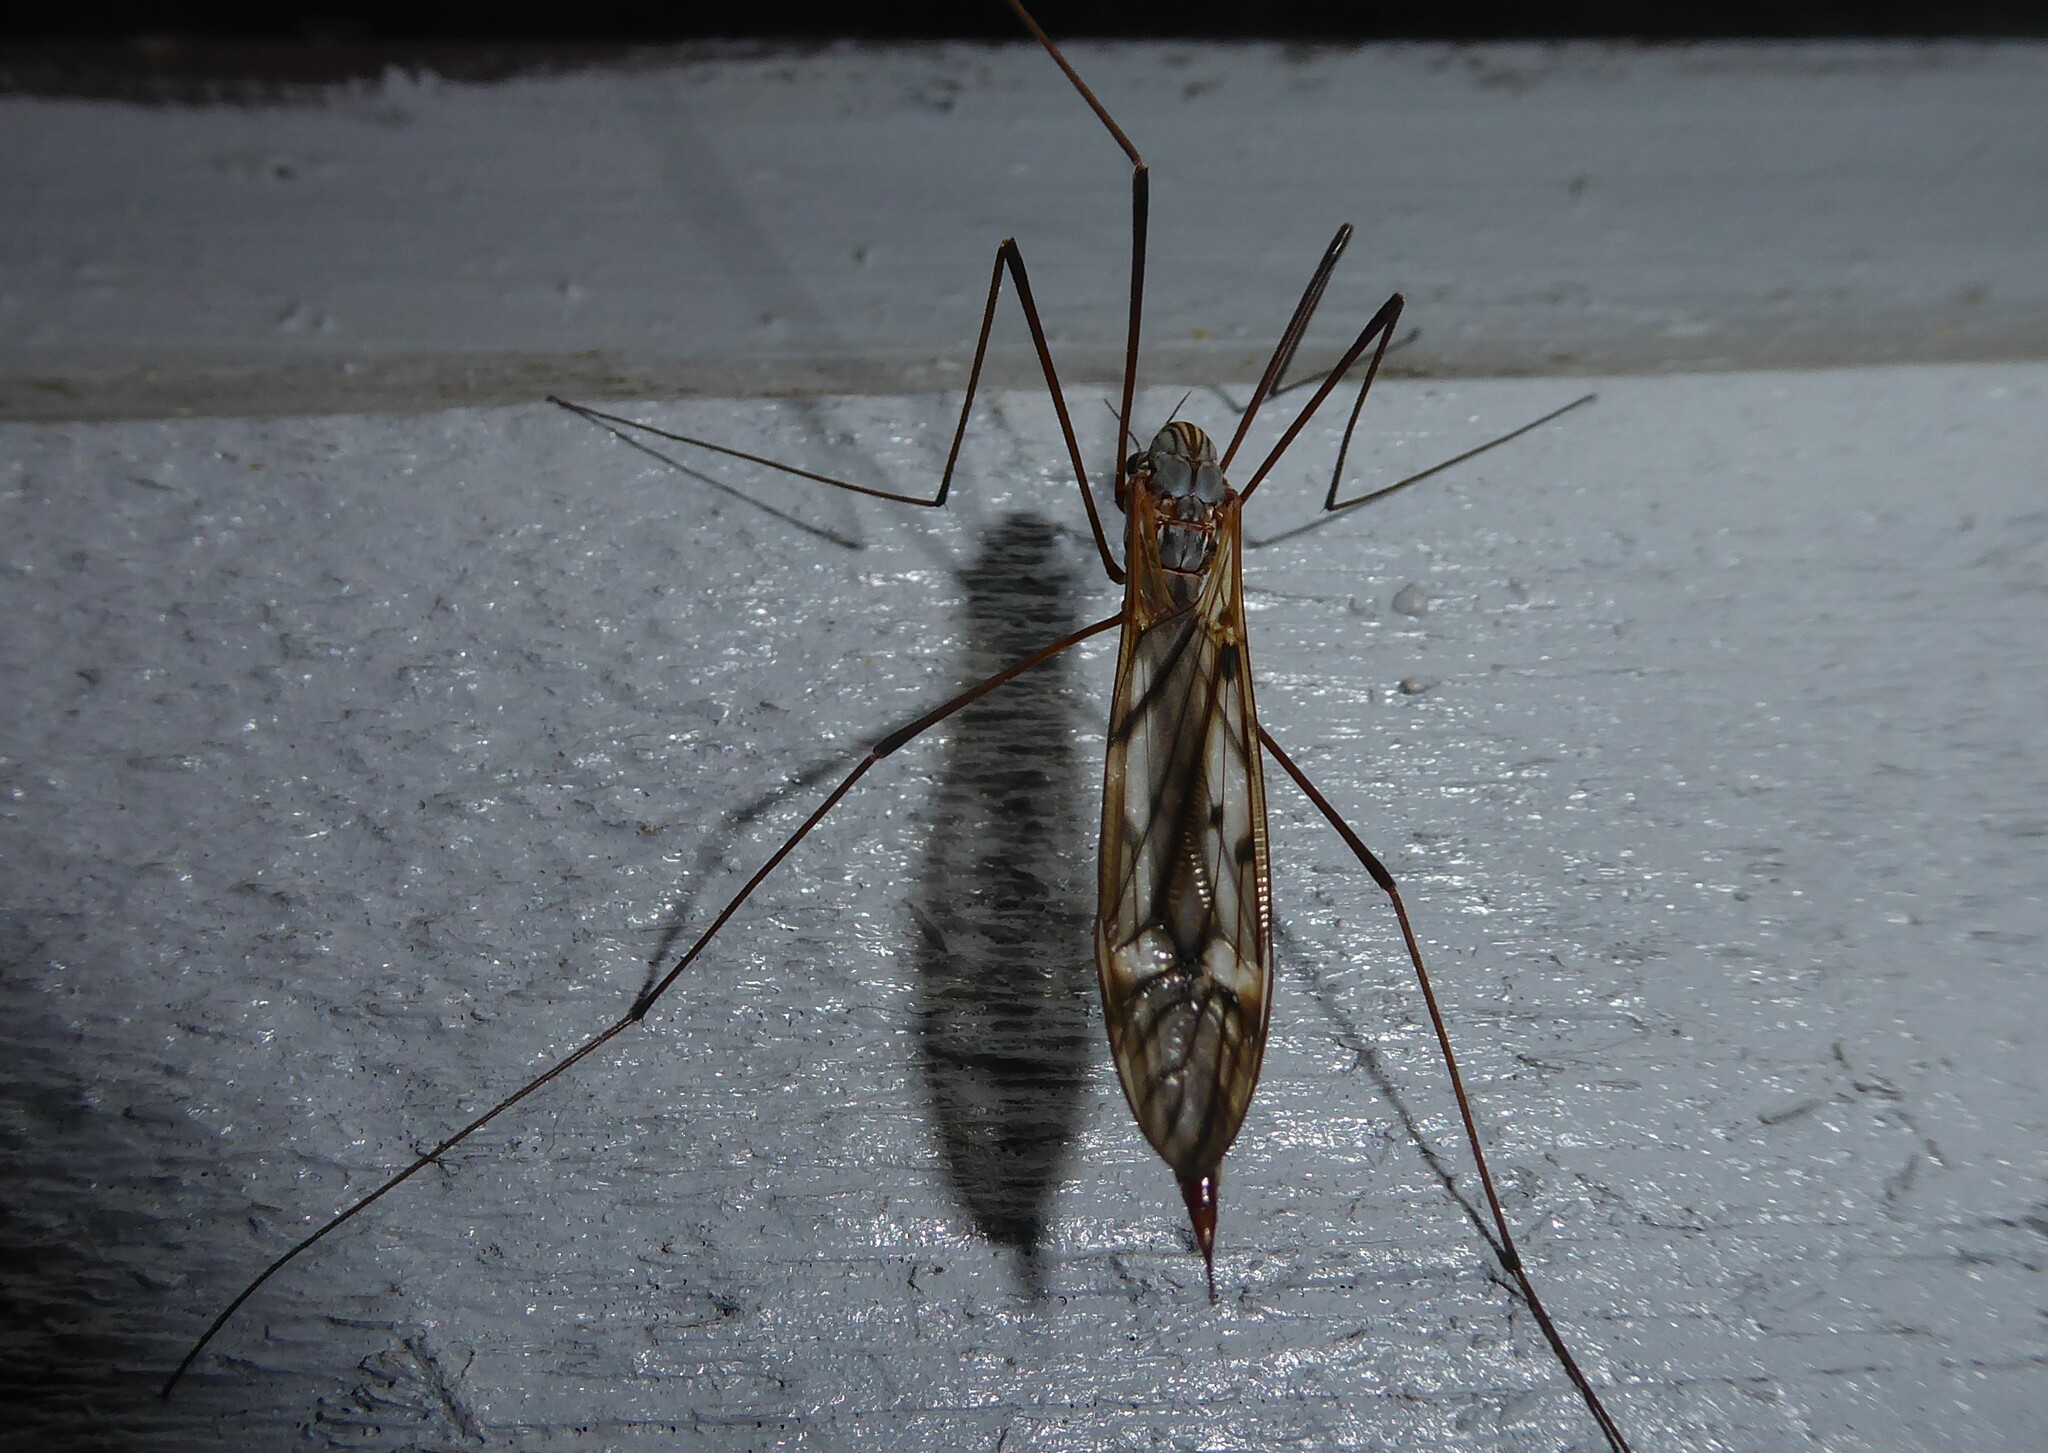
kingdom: Animalia
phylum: Arthropoda
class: Insecta
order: Diptera
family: Tipulidae
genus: Zelandotipula
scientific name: Zelandotipula novarae
